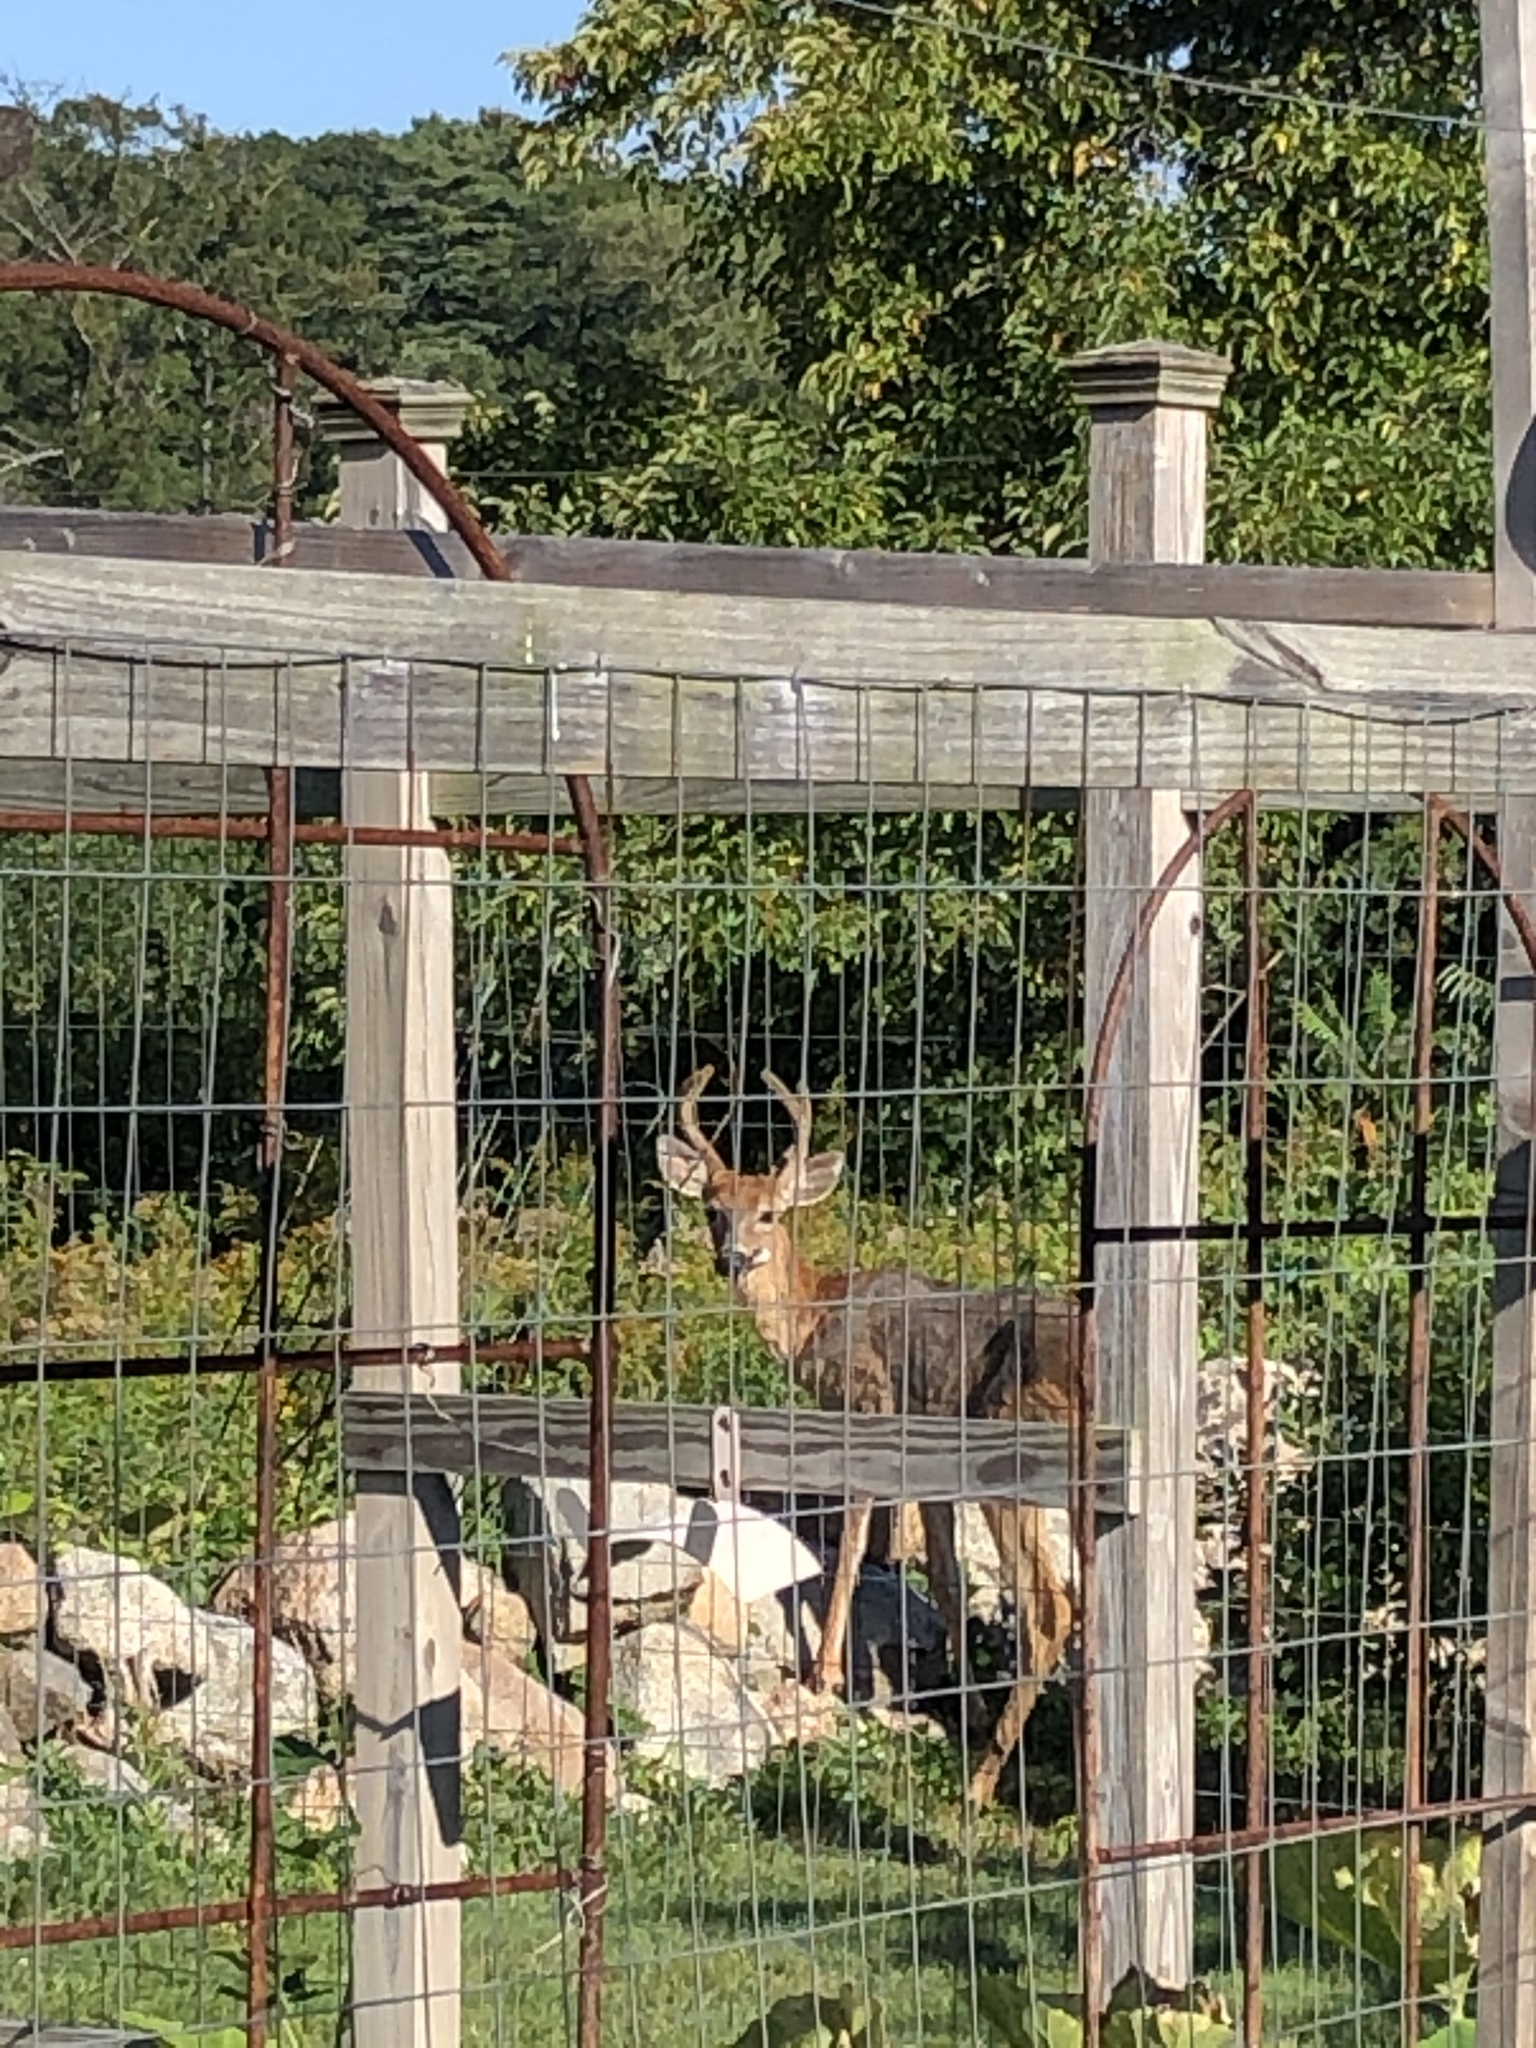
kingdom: Animalia
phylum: Chordata
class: Mammalia
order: Artiodactyla
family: Cervidae
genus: Odocoileus
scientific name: Odocoileus virginianus
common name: White-tailed deer
